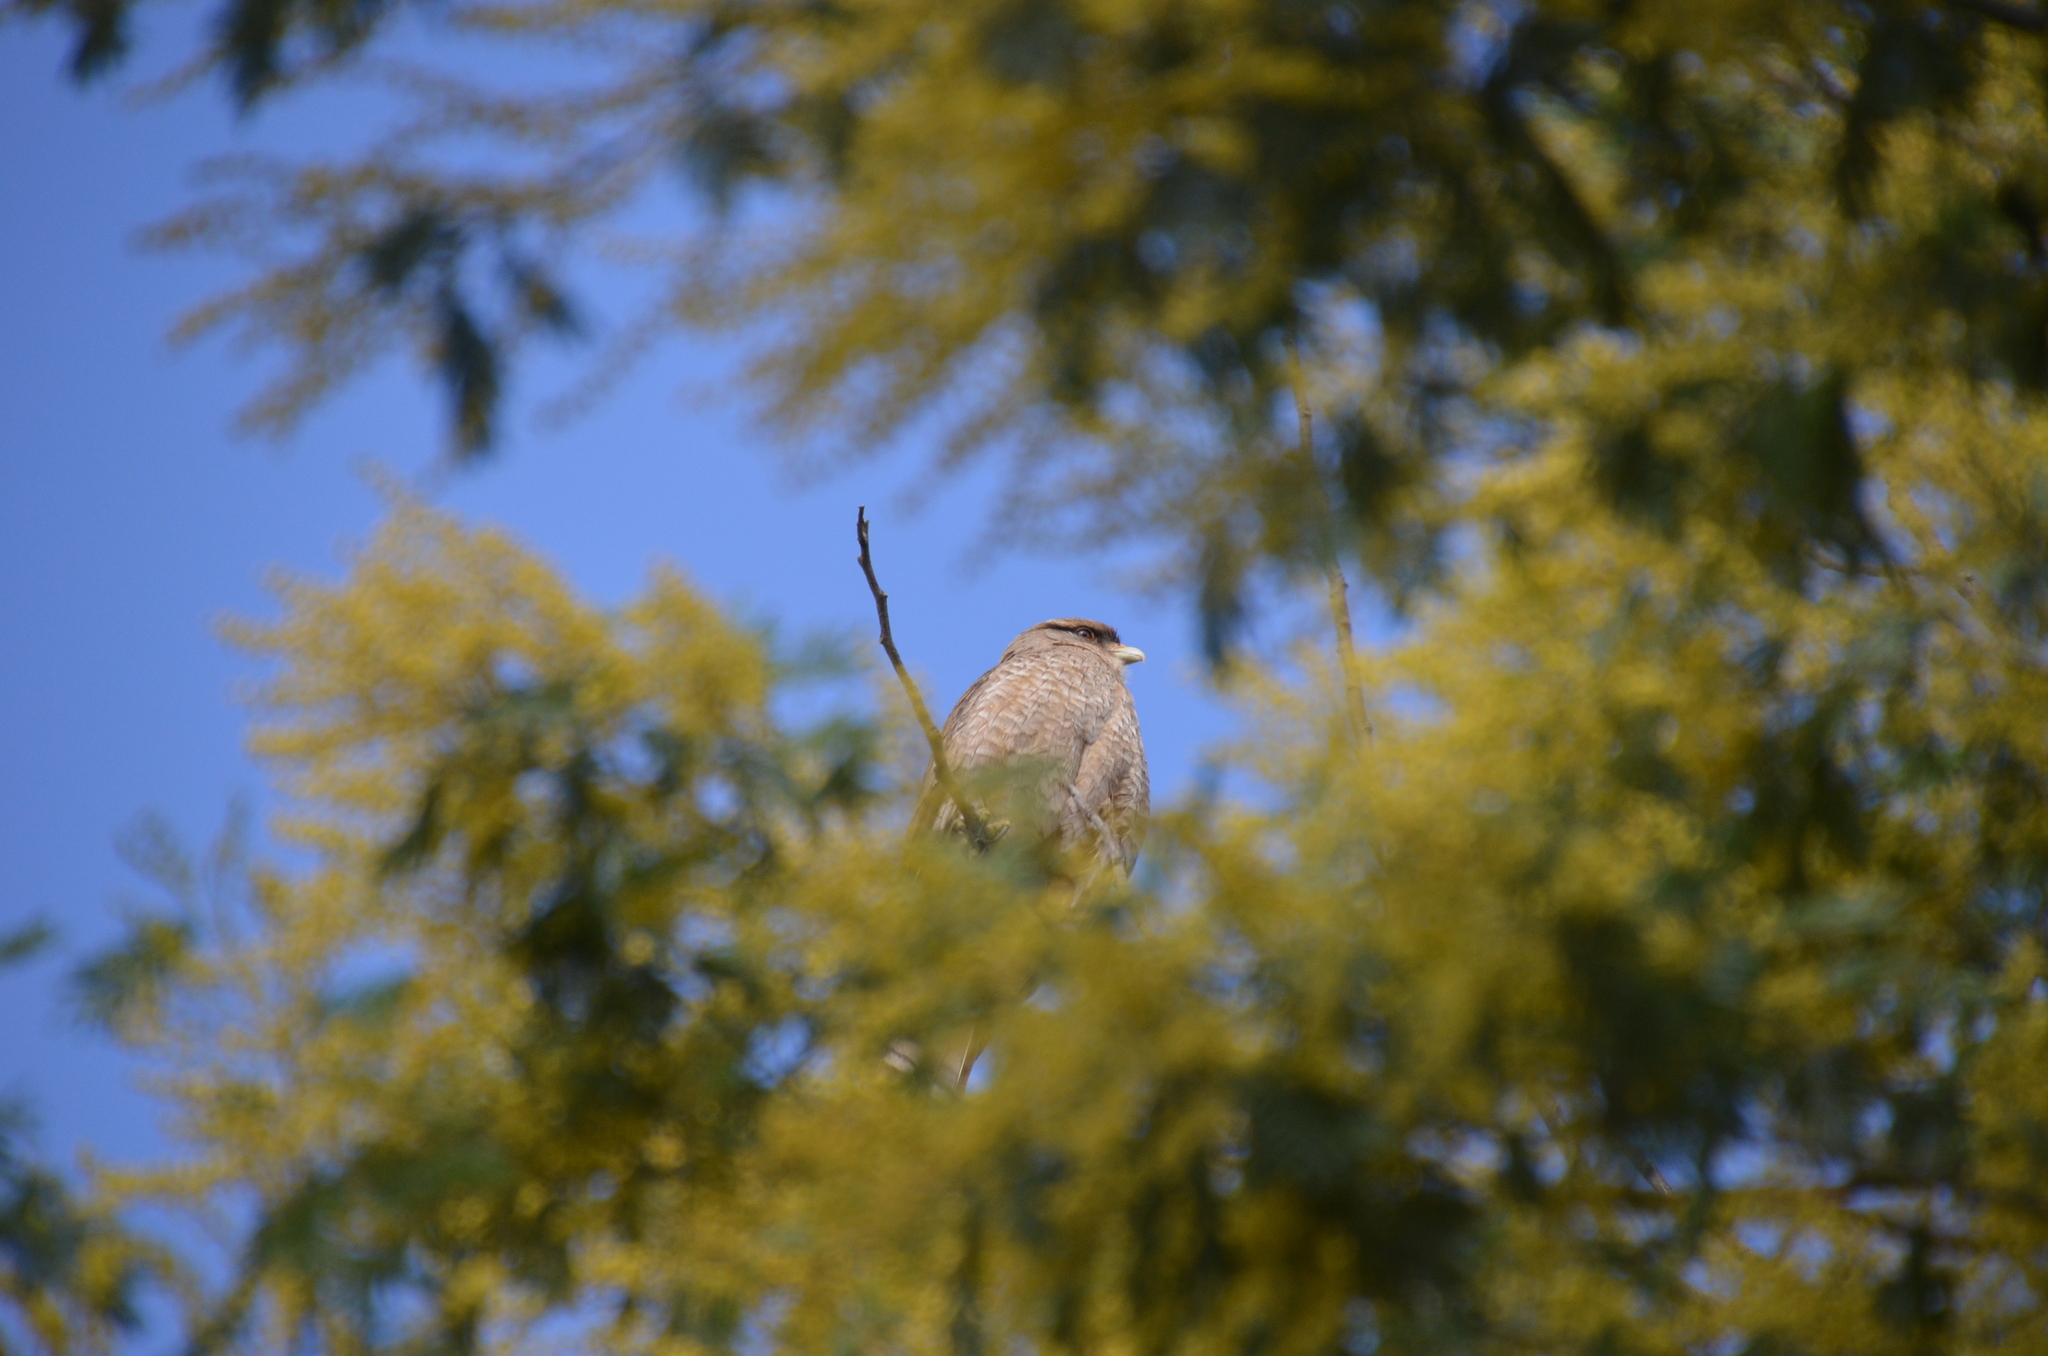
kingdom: Animalia
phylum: Chordata
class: Aves
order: Falconiformes
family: Falconidae
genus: Daptrius
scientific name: Daptrius
